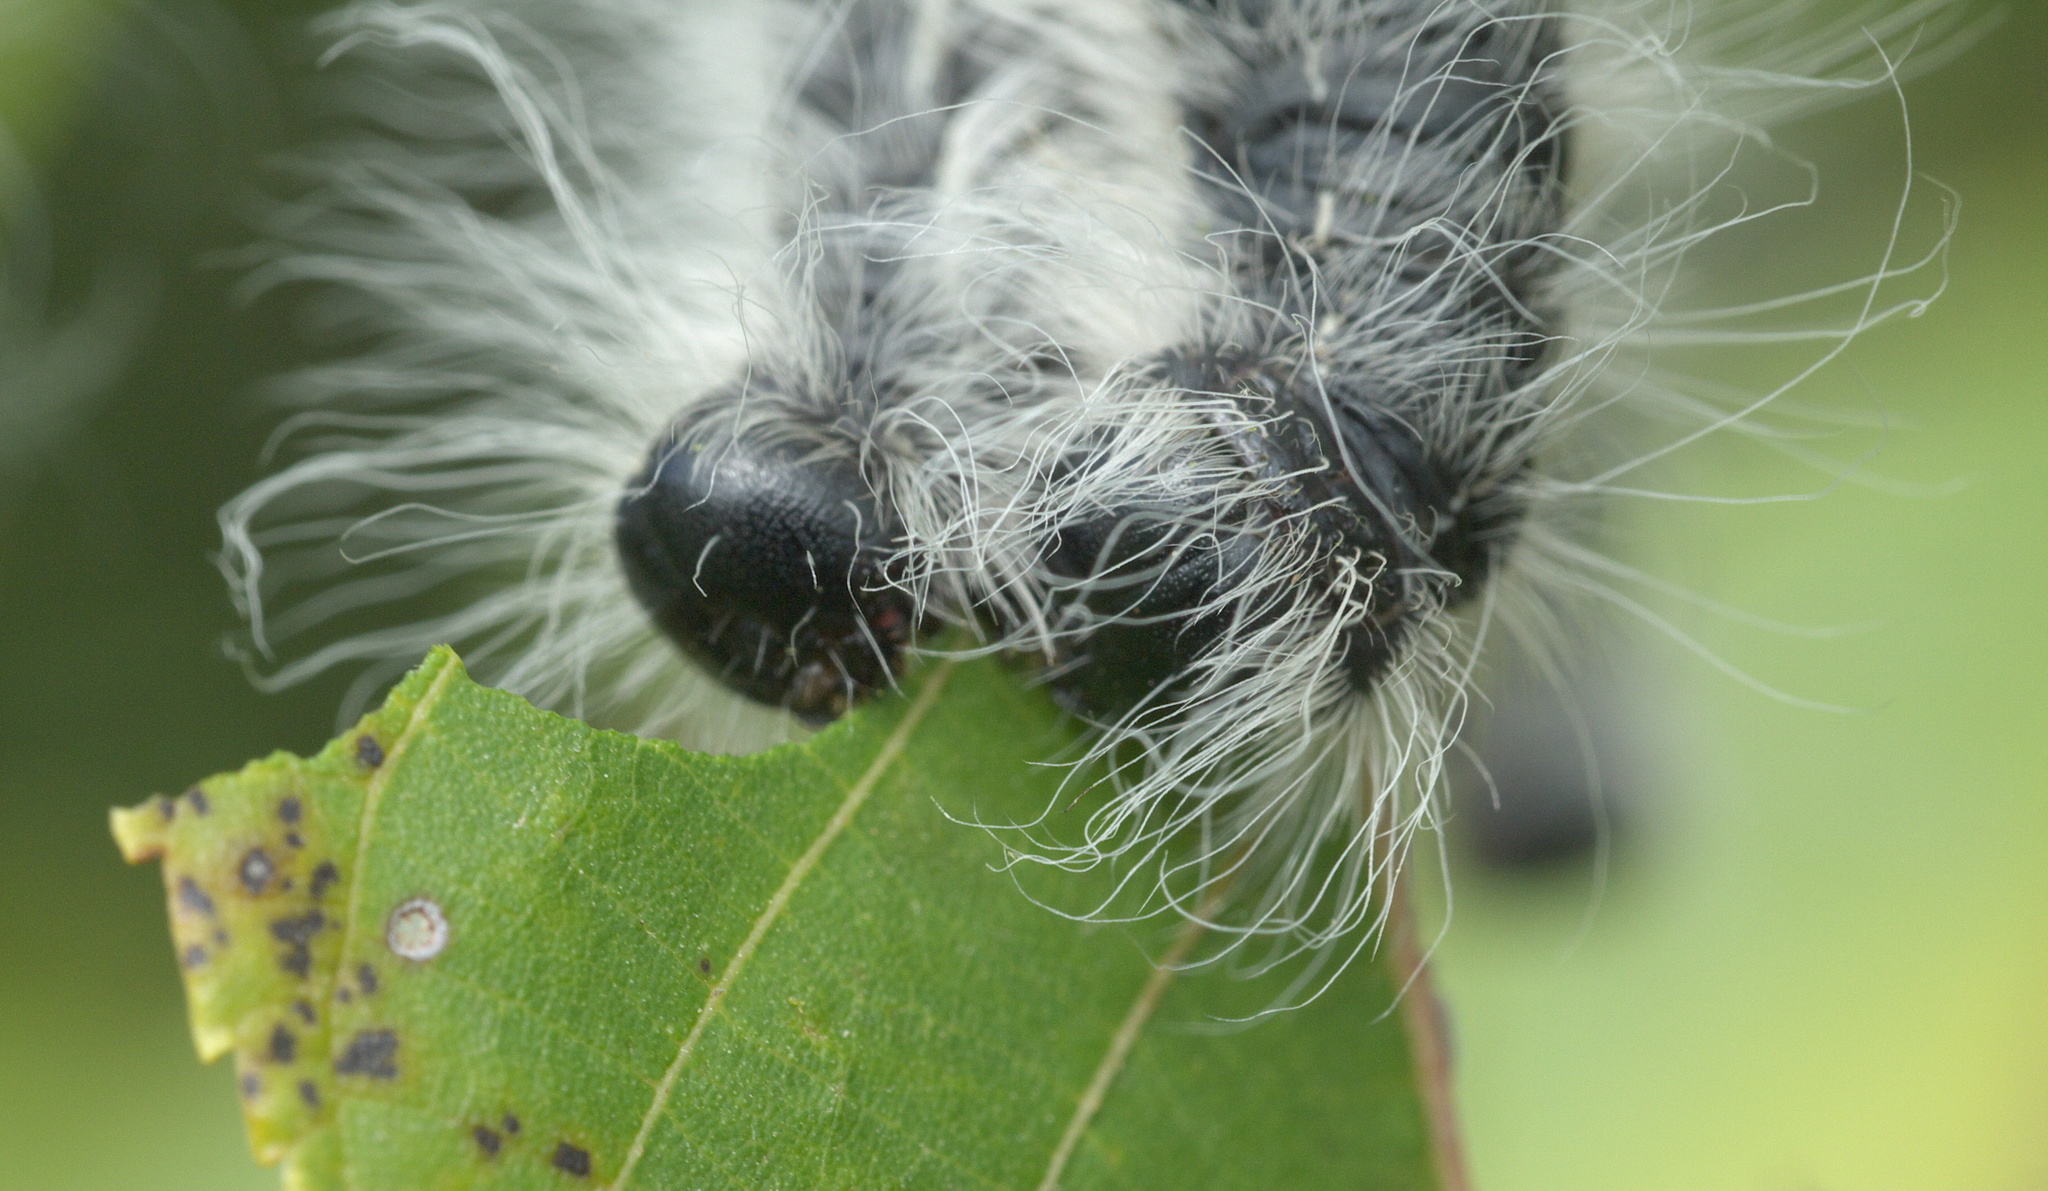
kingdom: Animalia
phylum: Arthropoda
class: Insecta
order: Lepidoptera
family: Notodontidae
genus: Datana
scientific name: Datana integerrima
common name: Walnut caterpillar
